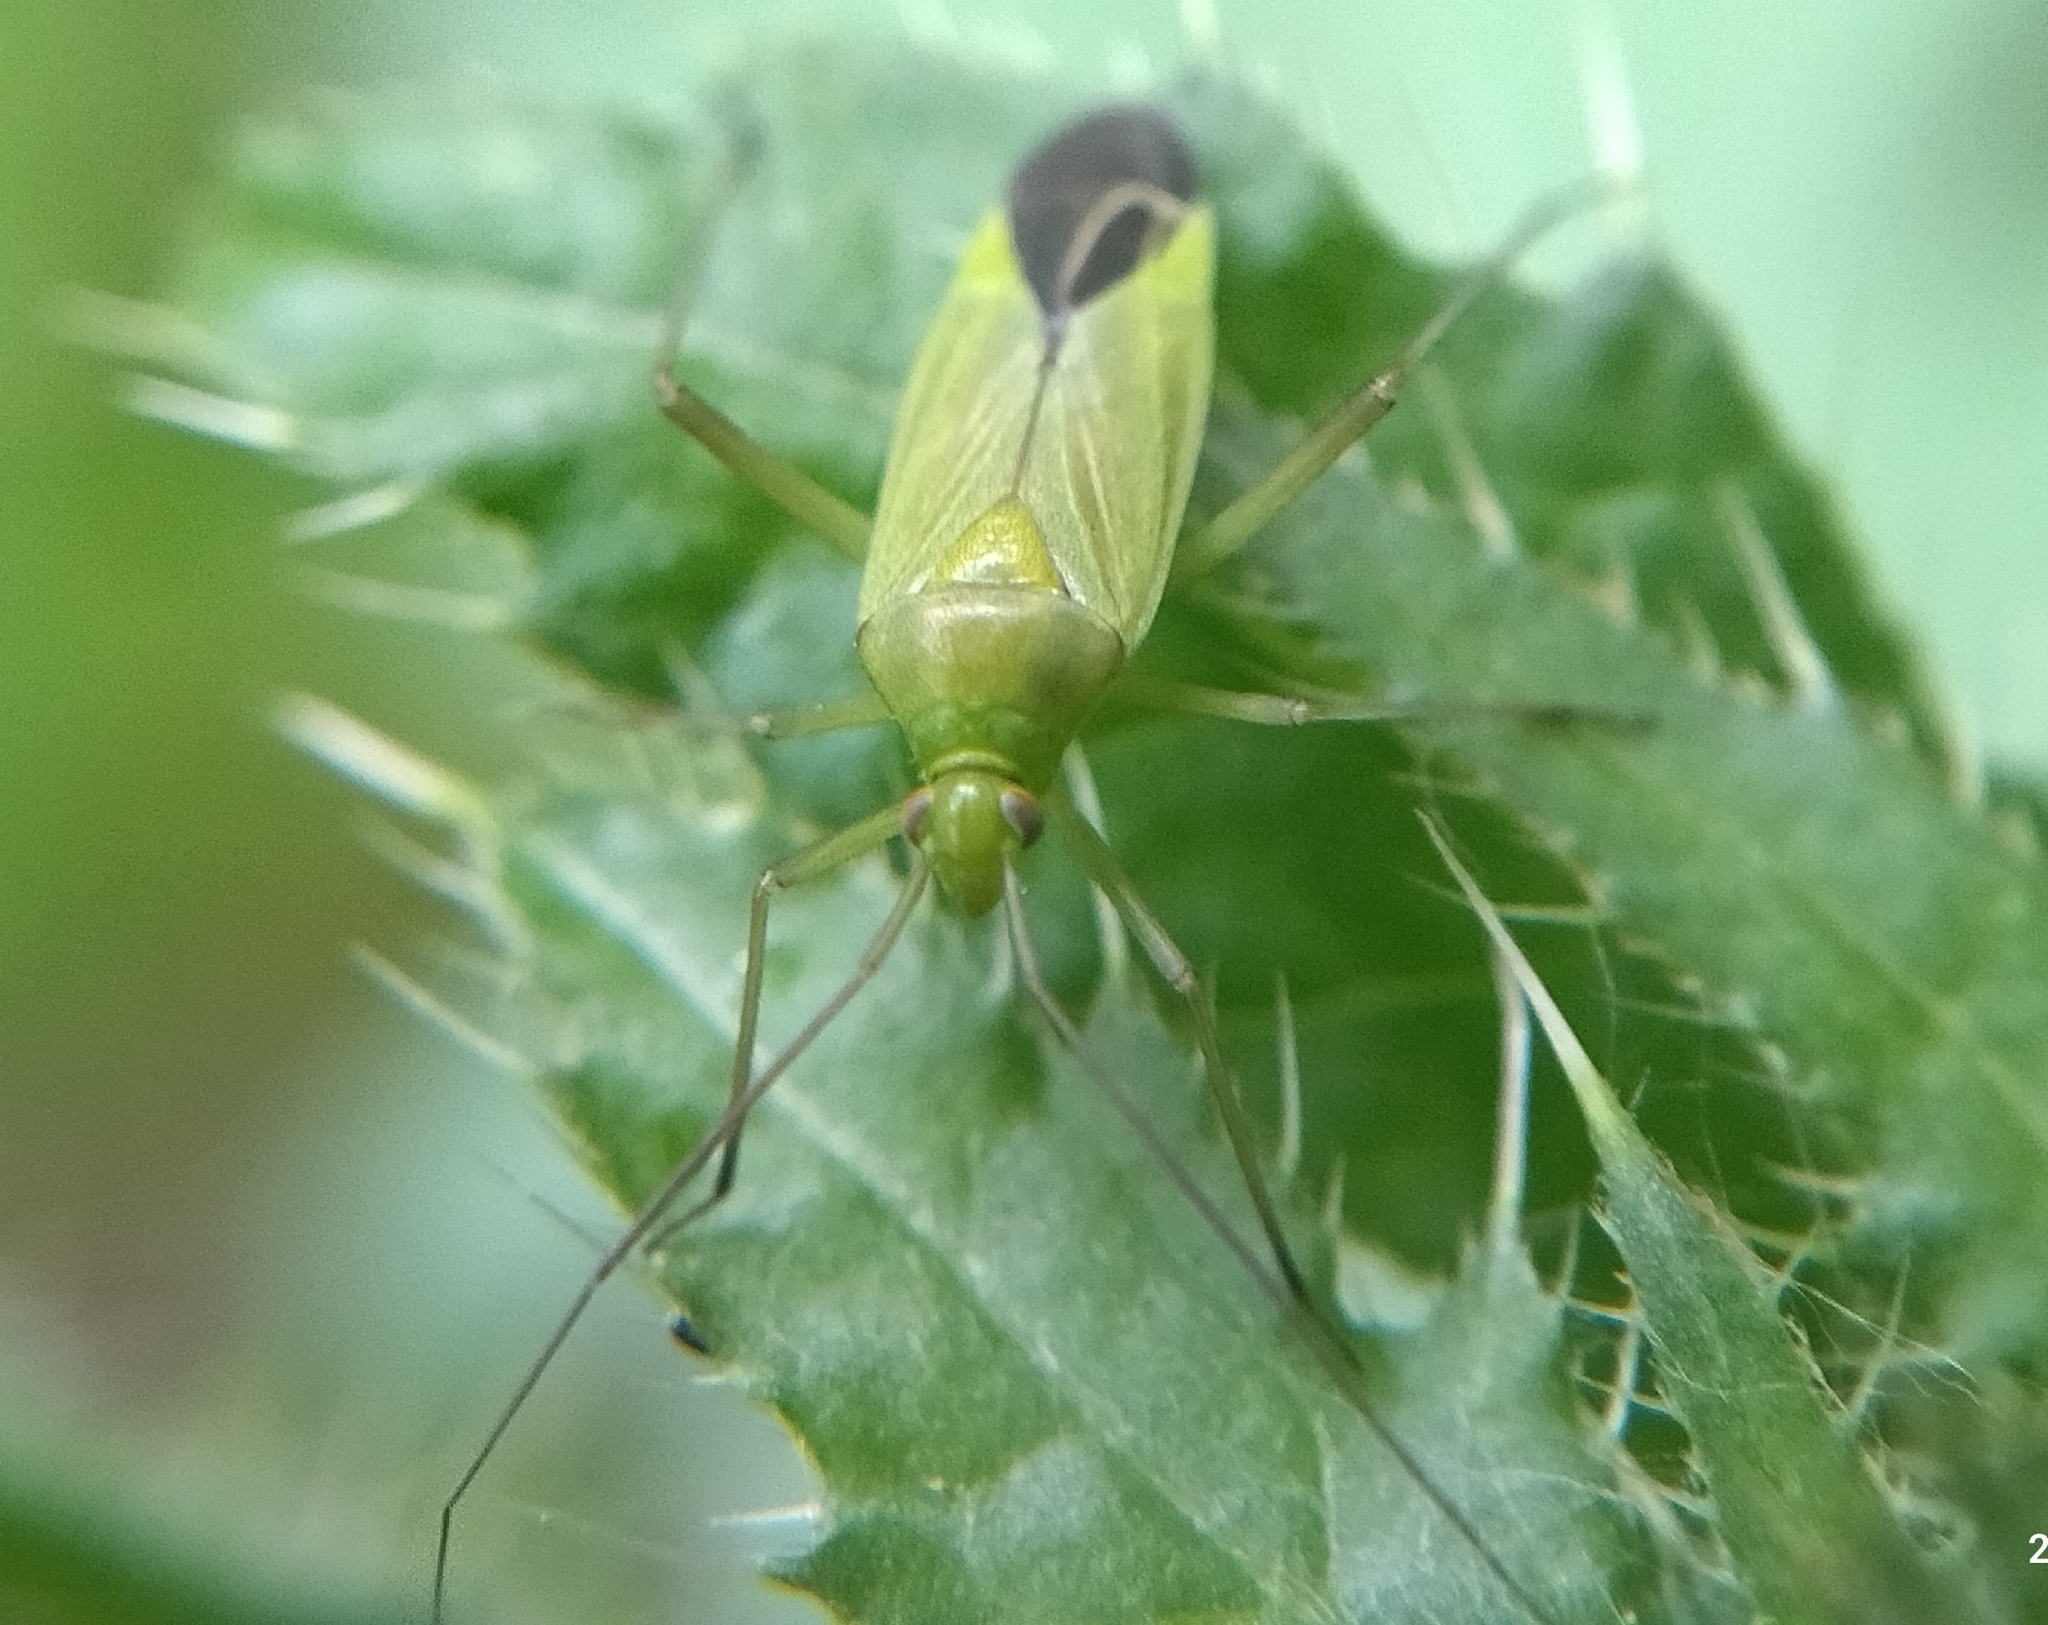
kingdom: Animalia
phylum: Arthropoda
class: Insecta
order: Hemiptera
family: Miridae
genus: Calocoris
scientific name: Calocoris affinis
